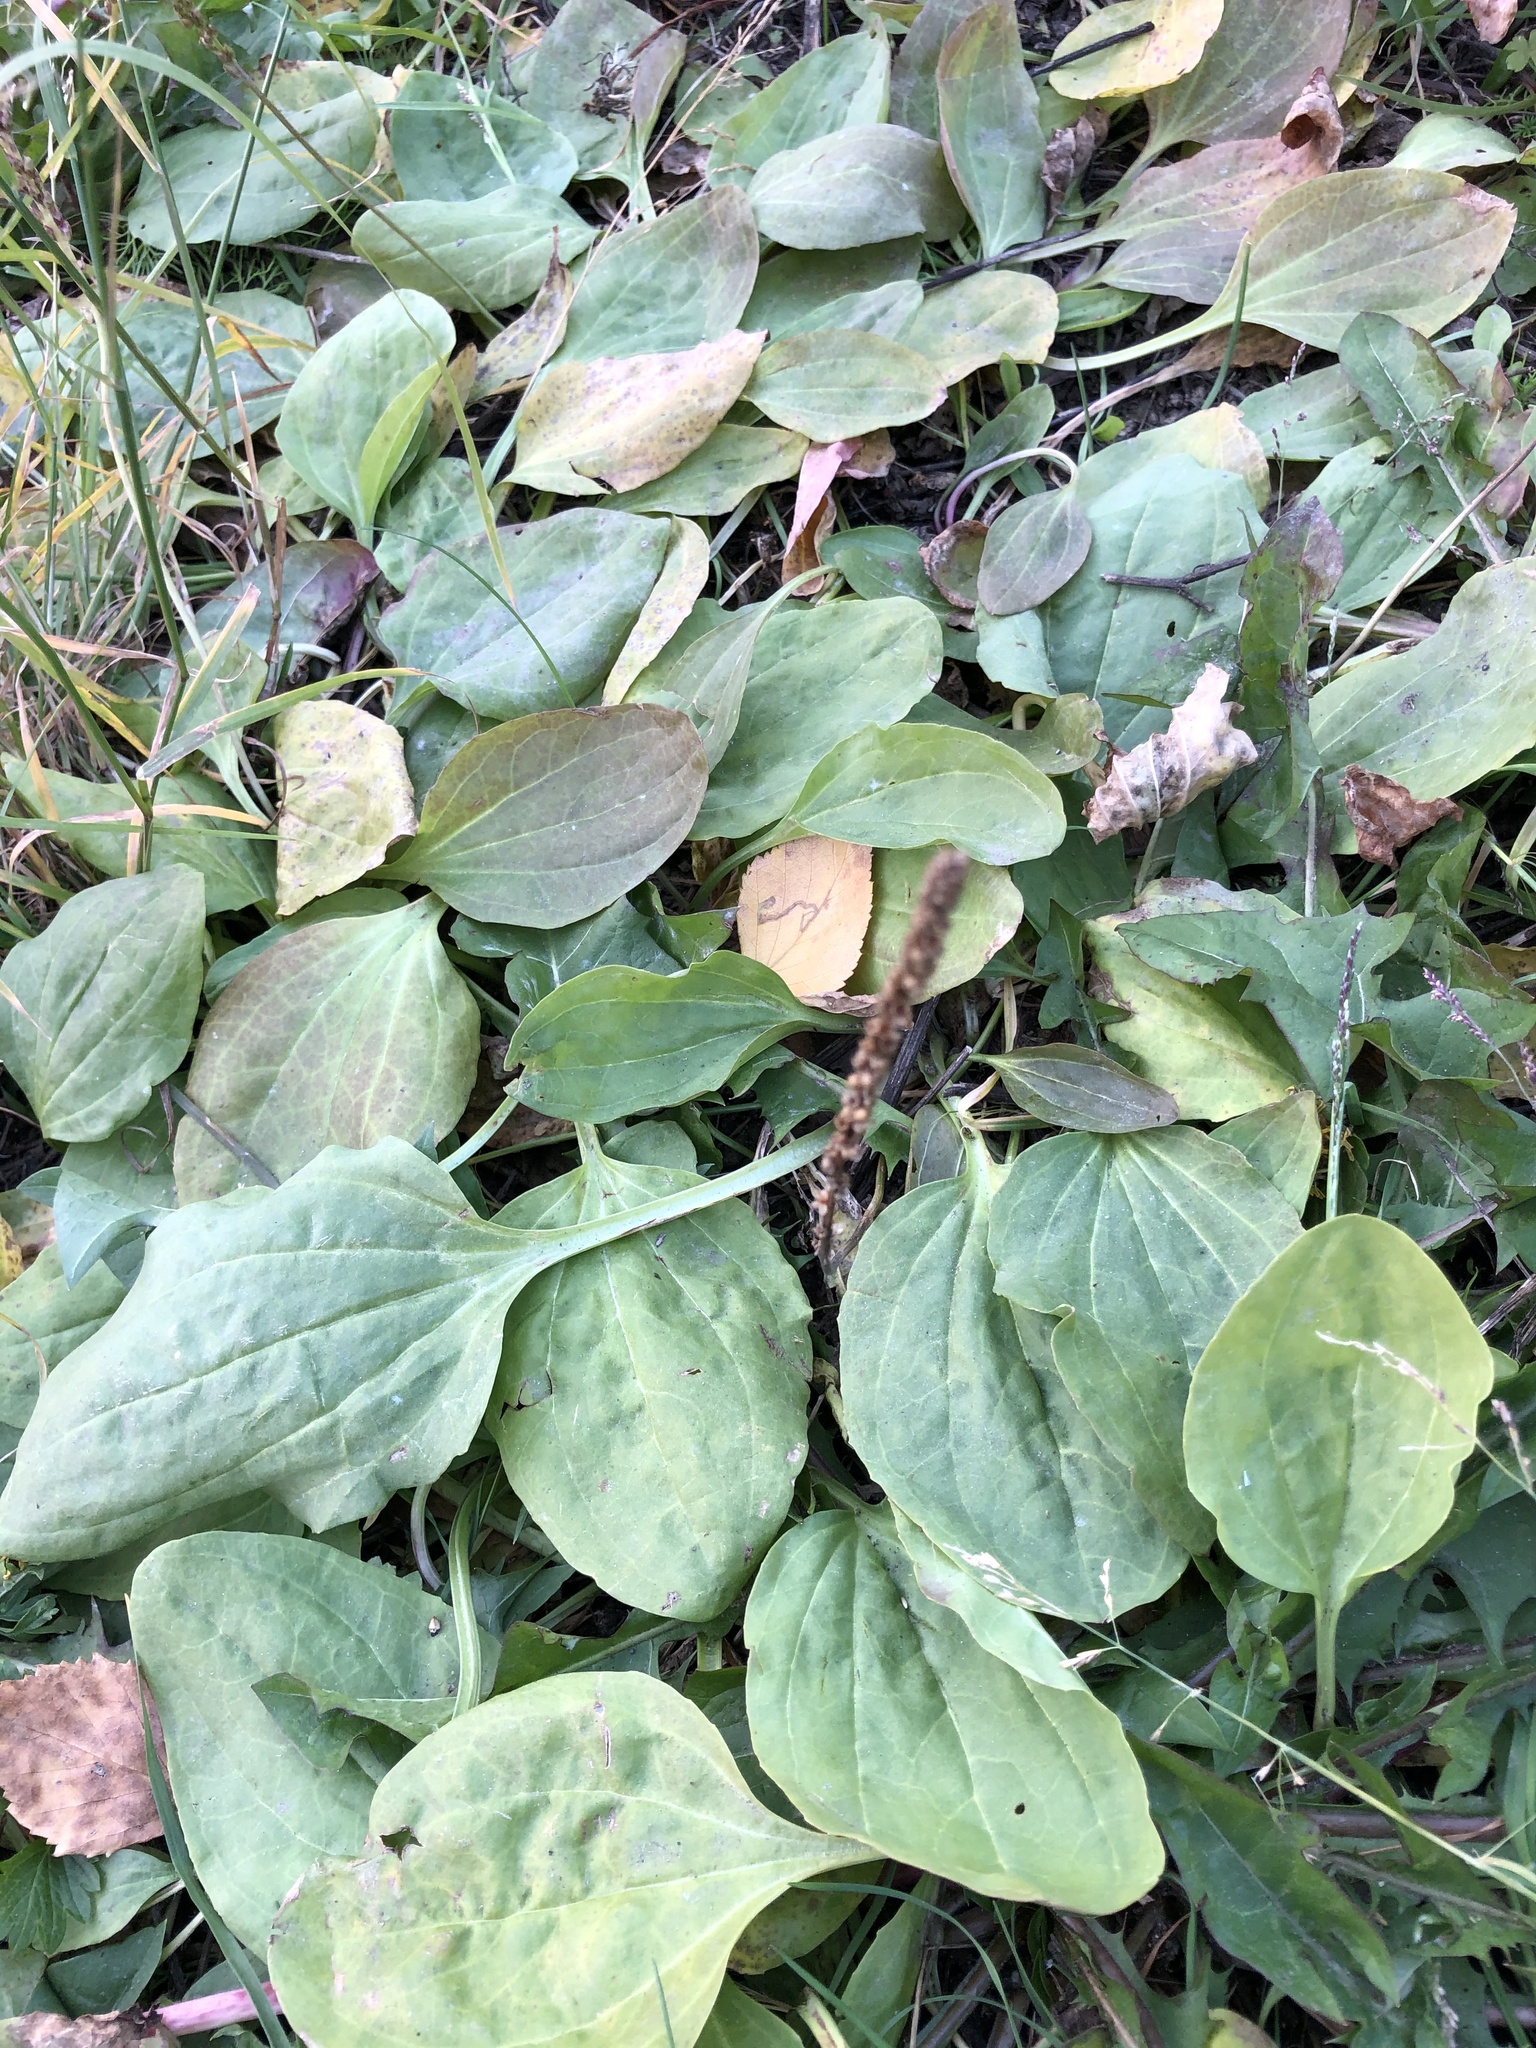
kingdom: Plantae
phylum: Tracheophyta
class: Magnoliopsida
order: Lamiales
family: Plantaginaceae
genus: Plantago
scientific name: Plantago major
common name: Common plantain
